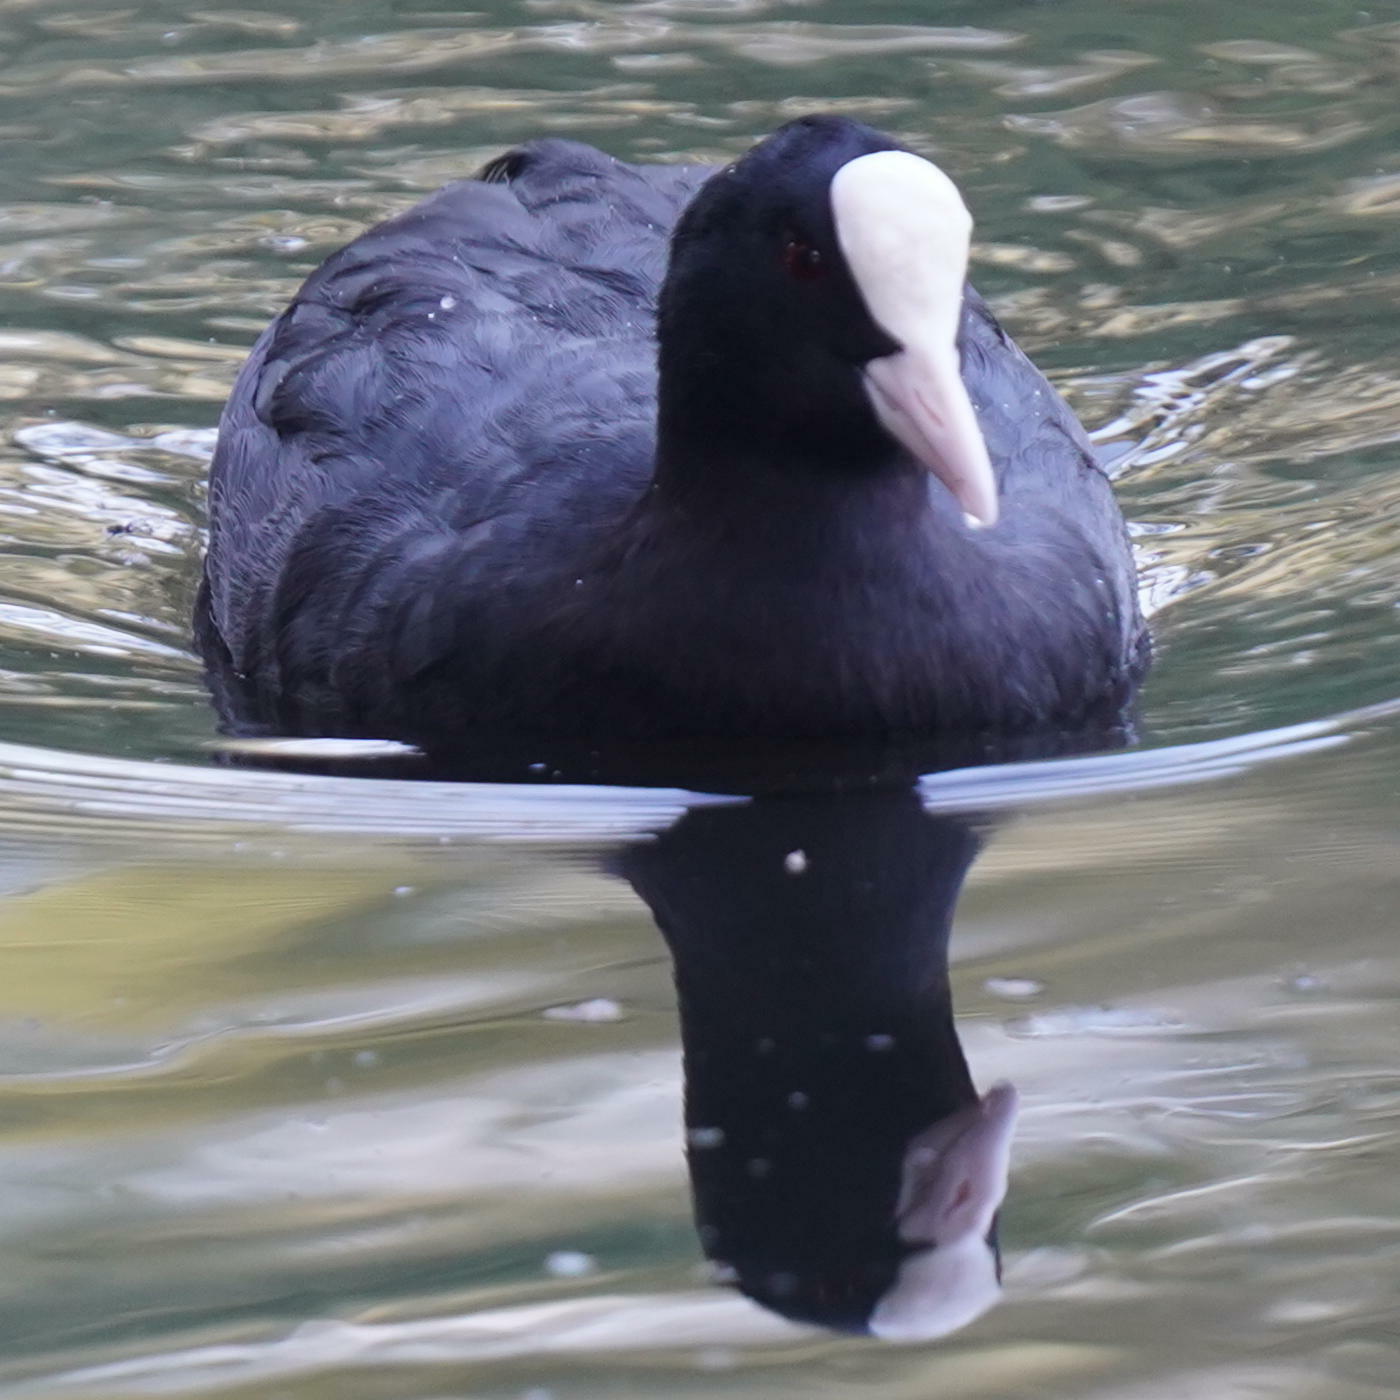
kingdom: Animalia
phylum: Chordata
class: Aves
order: Gruiformes
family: Rallidae
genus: Fulica
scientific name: Fulica atra
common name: Eurasian coot
